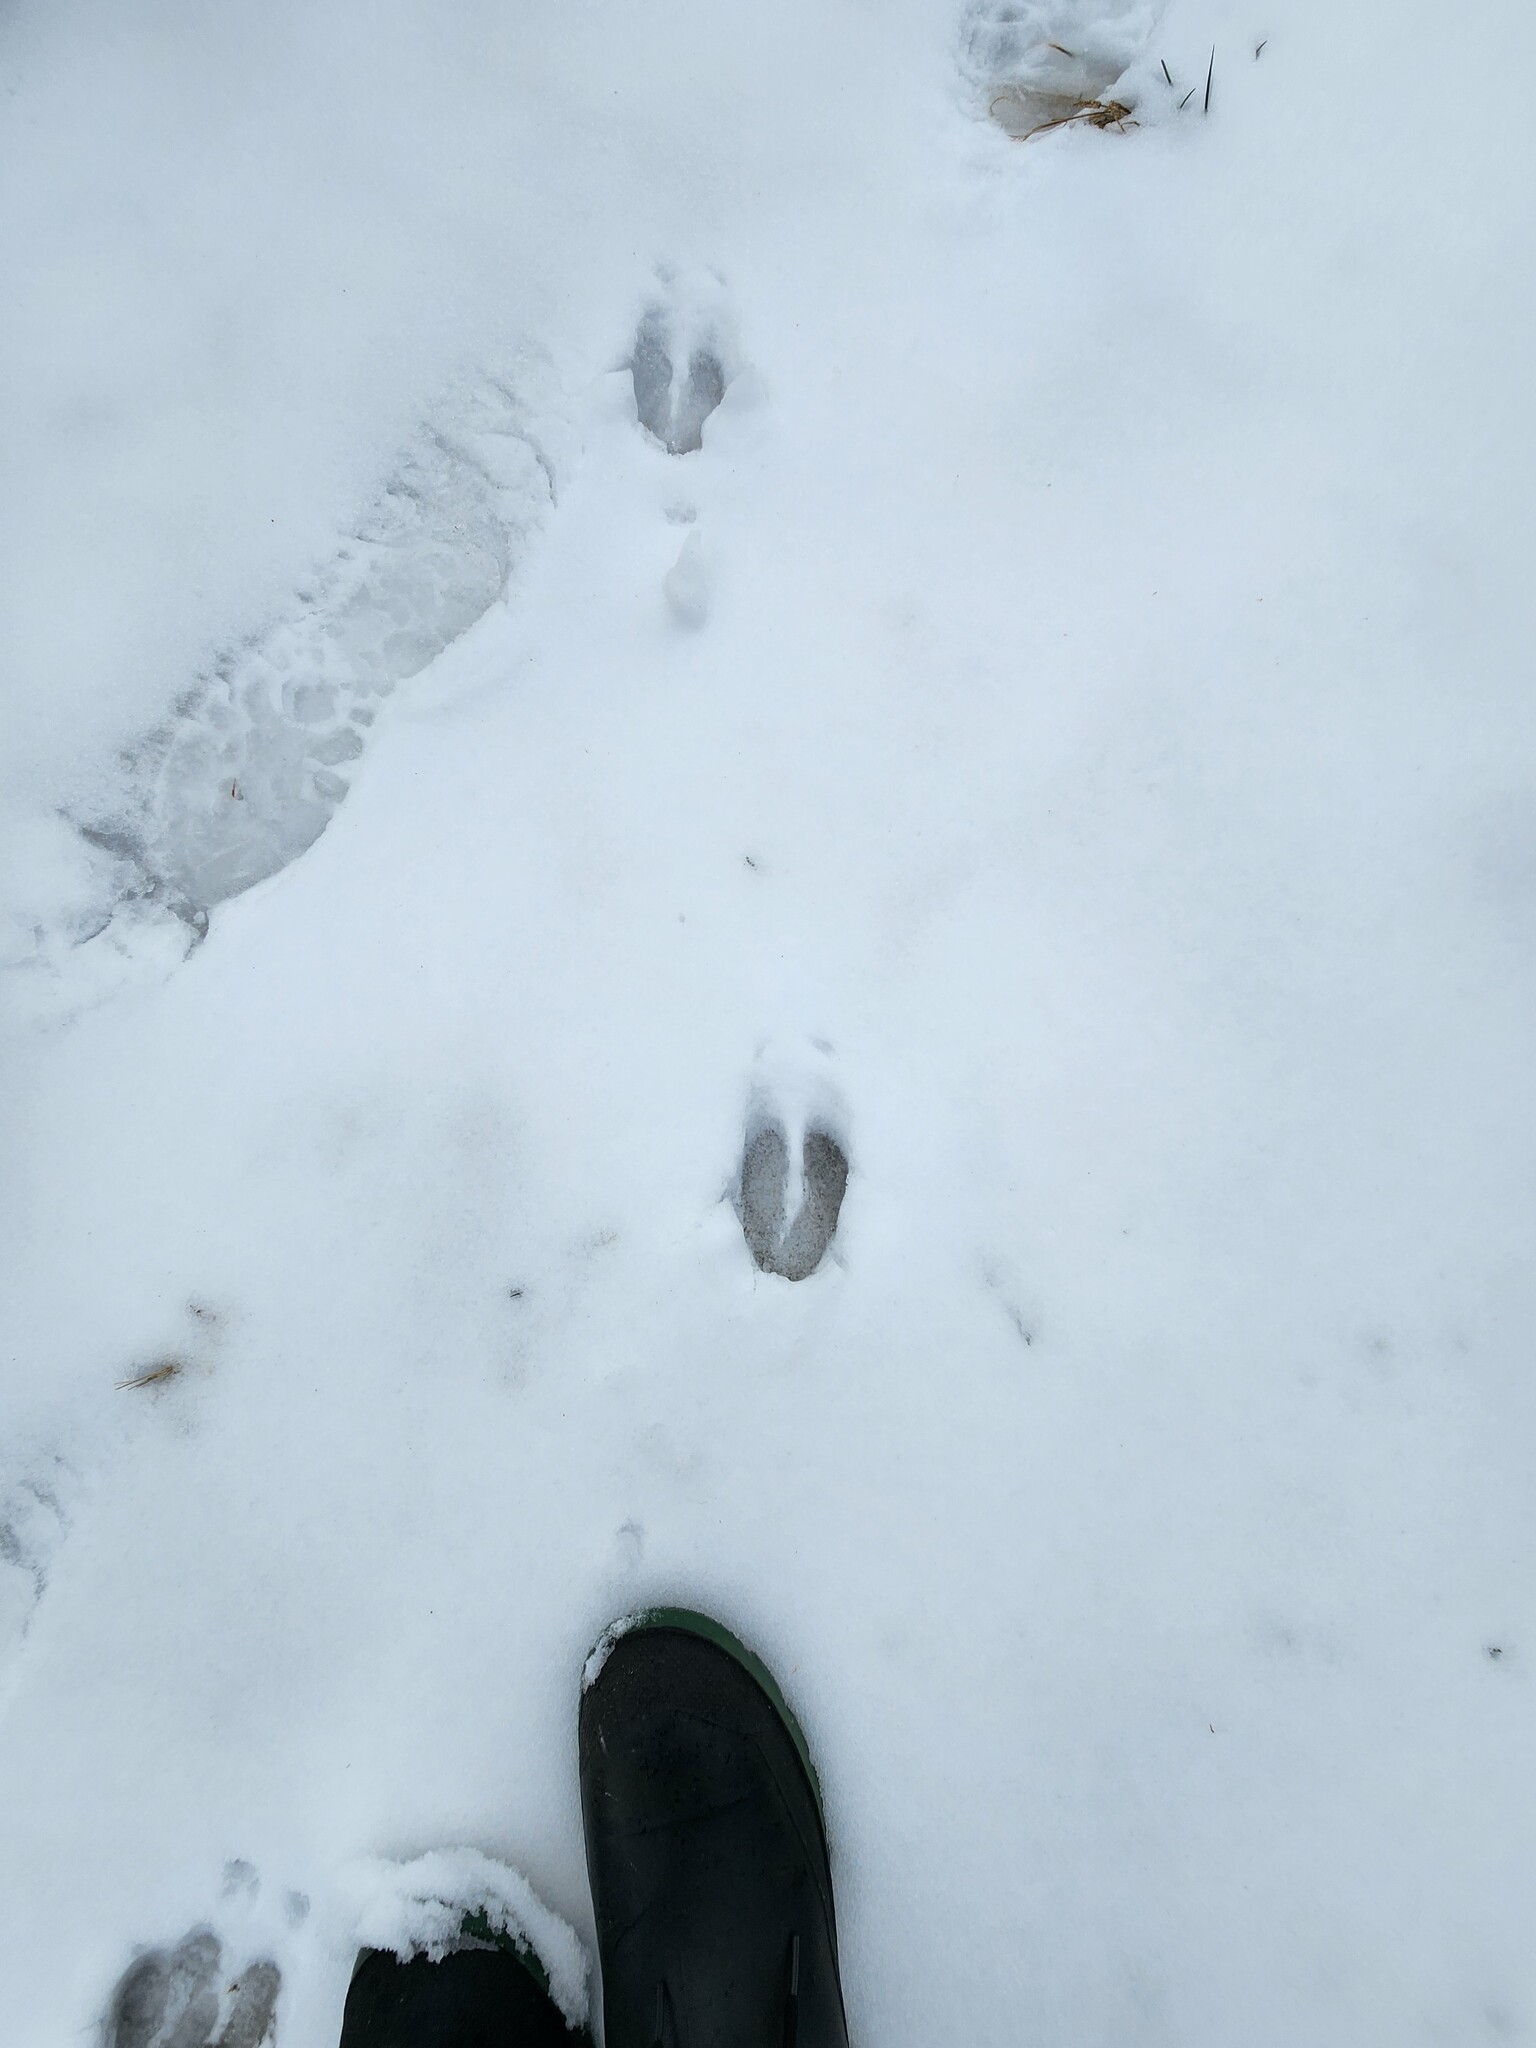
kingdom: Animalia
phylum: Chordata
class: Mammalia
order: Artiodactyla
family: Cervidae
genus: Odocoileus
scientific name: Odocoileus virginianus
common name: White-tailed deer
